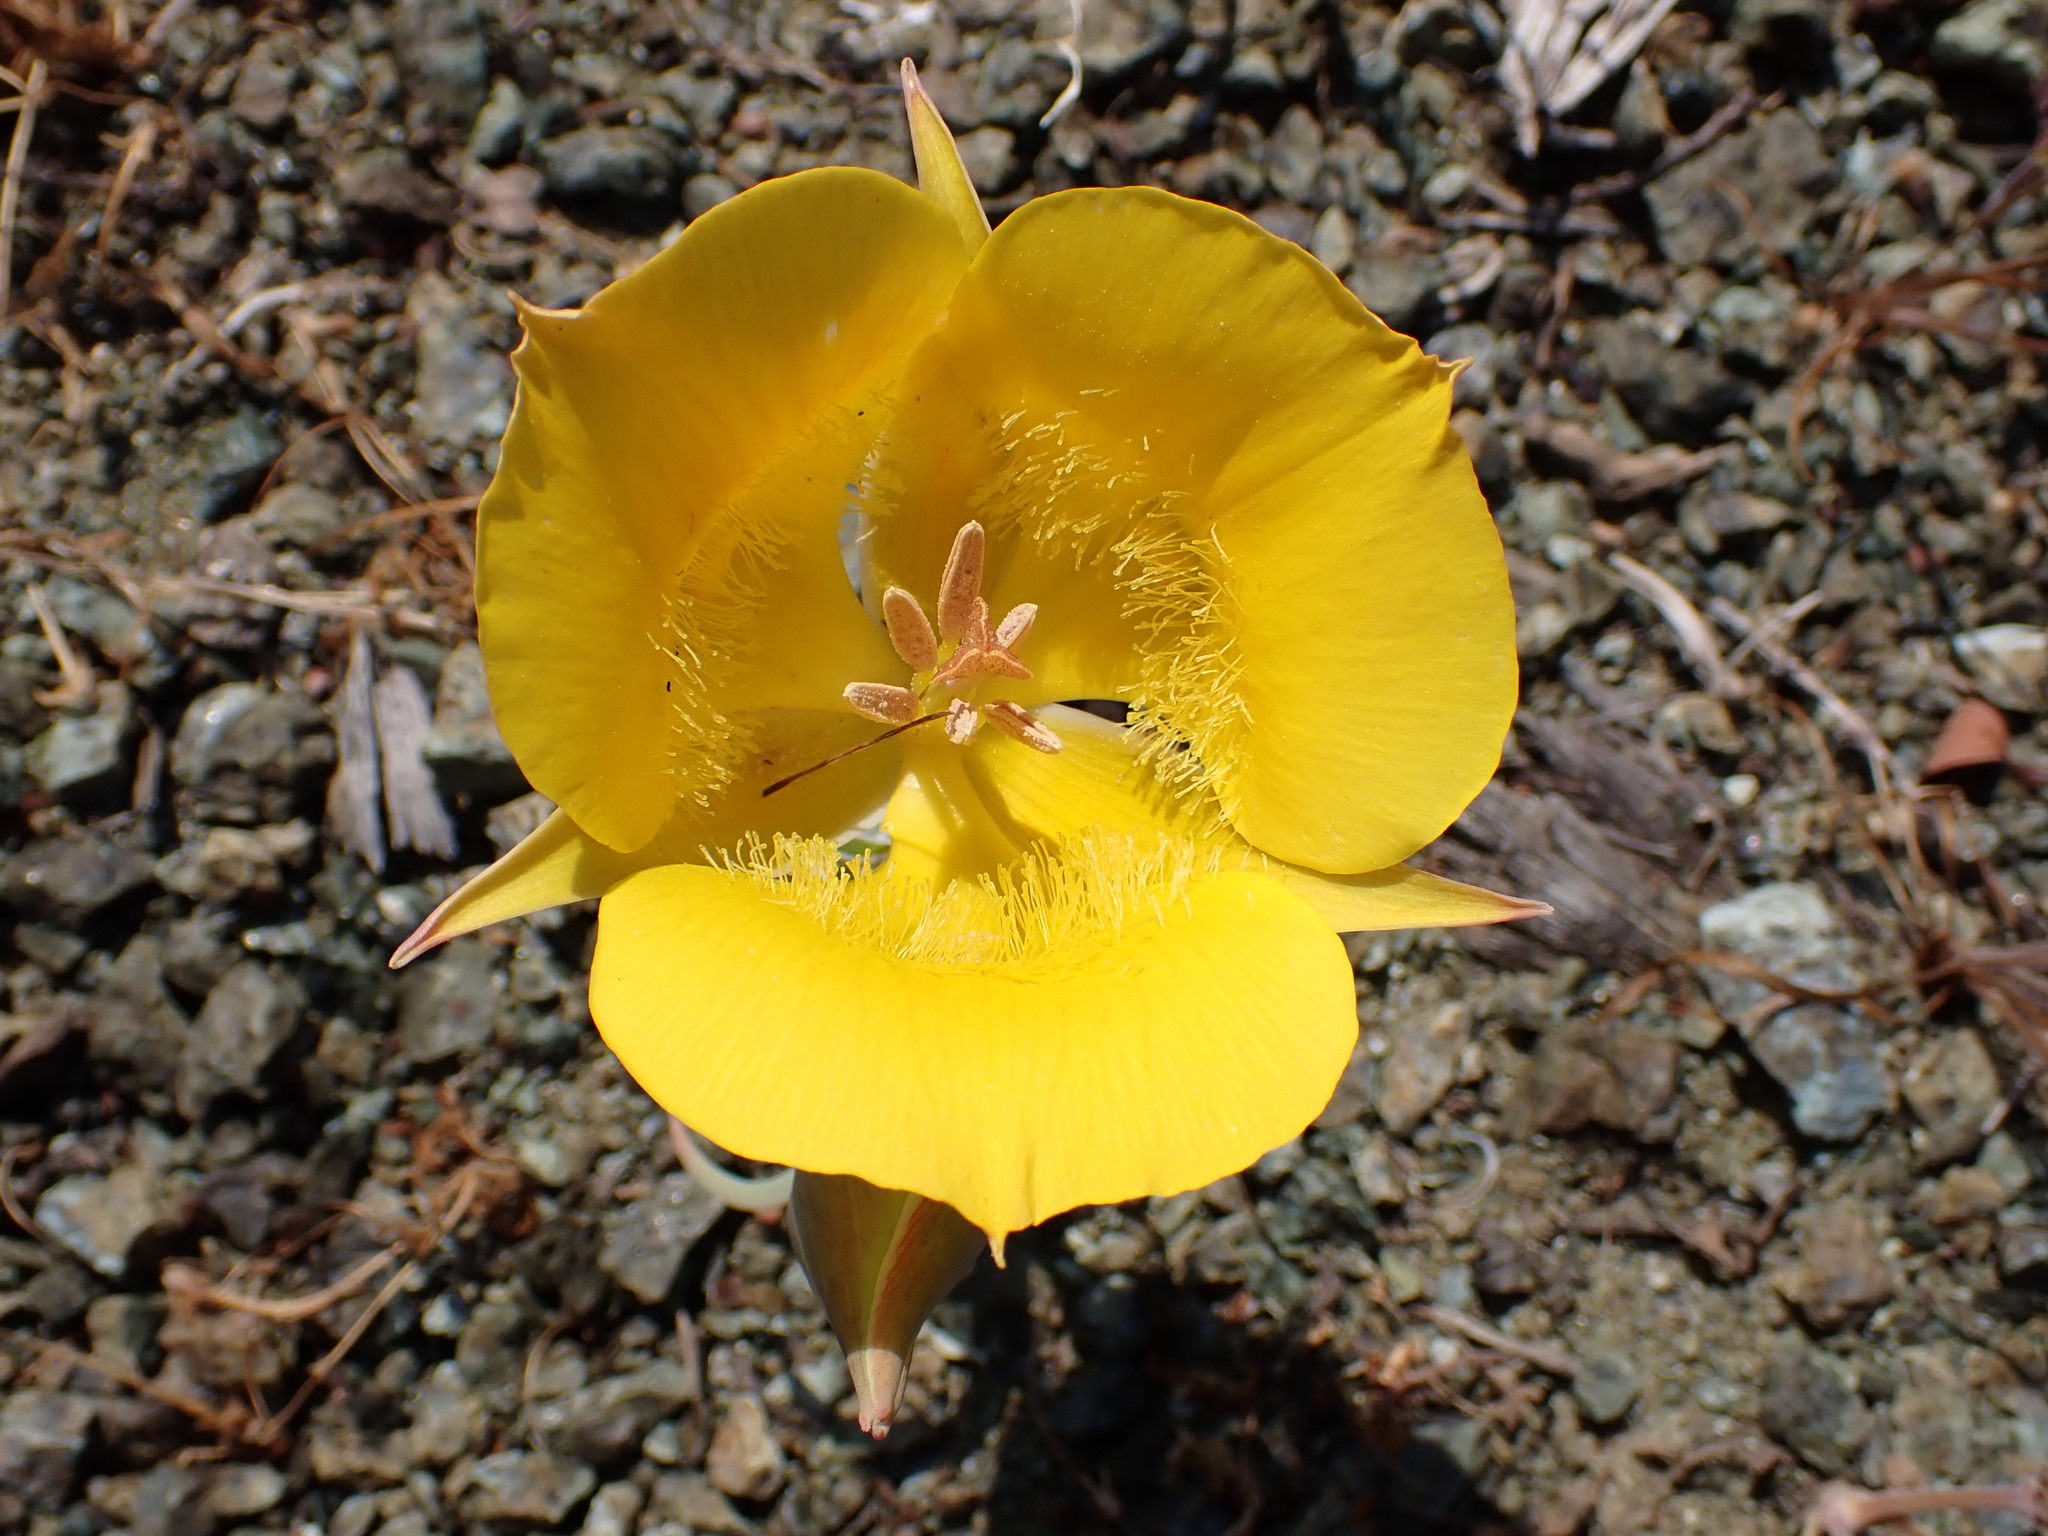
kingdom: Plantae
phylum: Tracheophyta
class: Liliopsida
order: Liliales
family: Liliaceae
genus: Calochortus
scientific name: Calochortus clavatus
